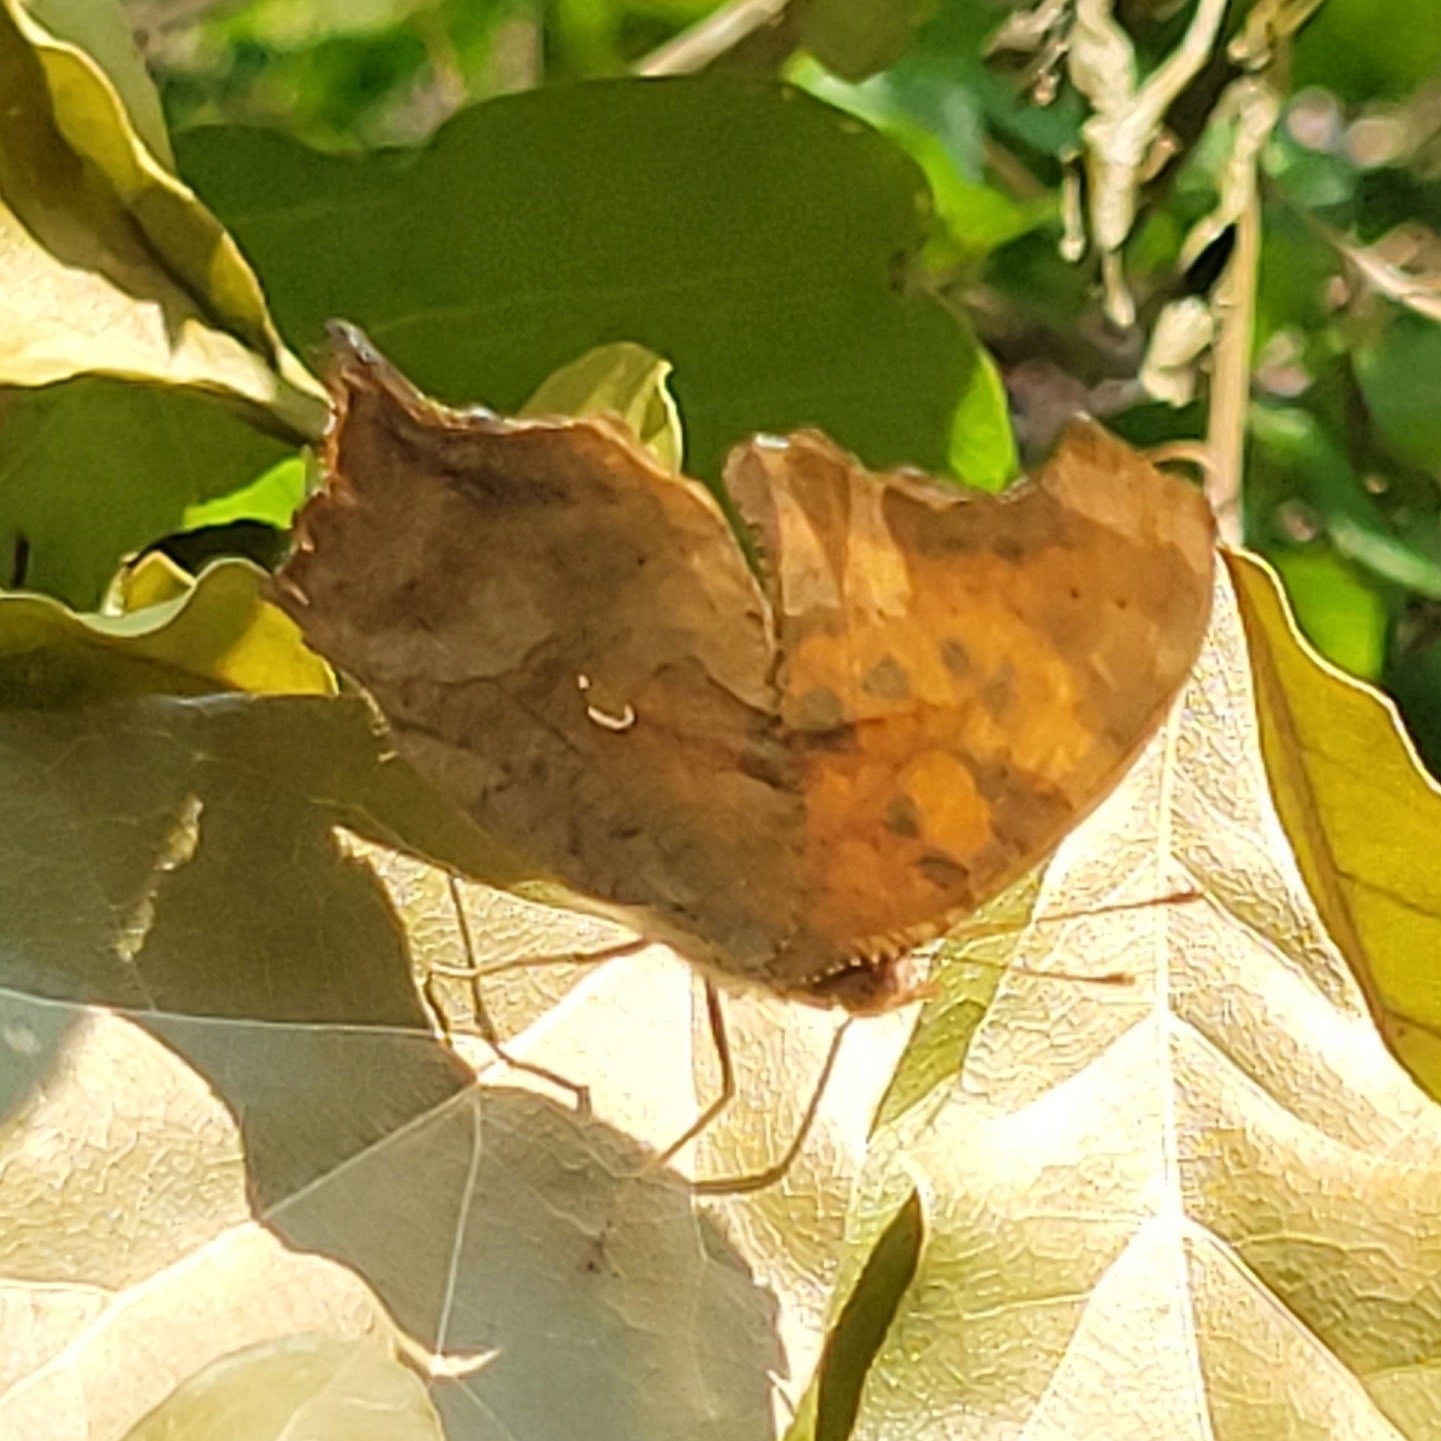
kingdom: Animalia
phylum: Arthropoda
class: Insecta
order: Lepidoptera
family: Nymphalidae
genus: Polygonia
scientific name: Polygonia interrogationis
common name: Question mark
